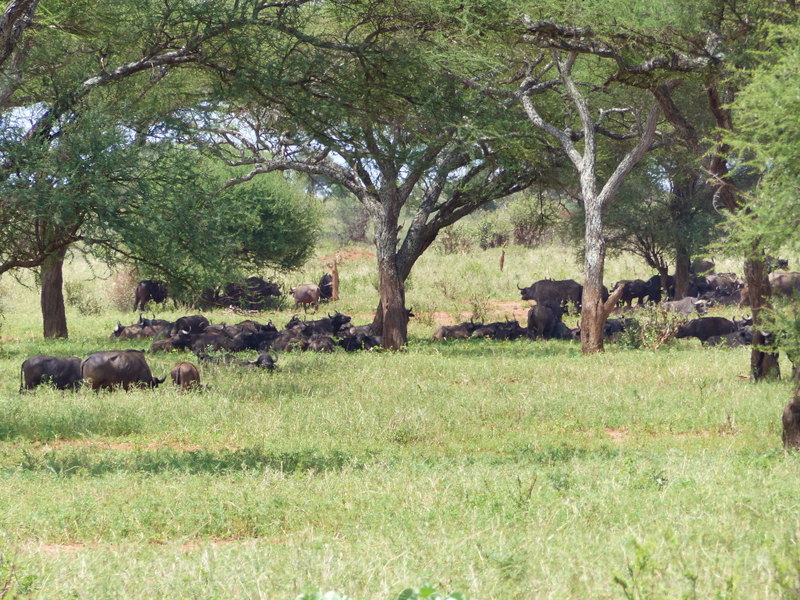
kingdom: Animalia
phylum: Chordata
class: Mammalia
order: Artiodactyla
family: Bovidae
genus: Syncerus
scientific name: Syncerus caffer
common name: African buffalo
